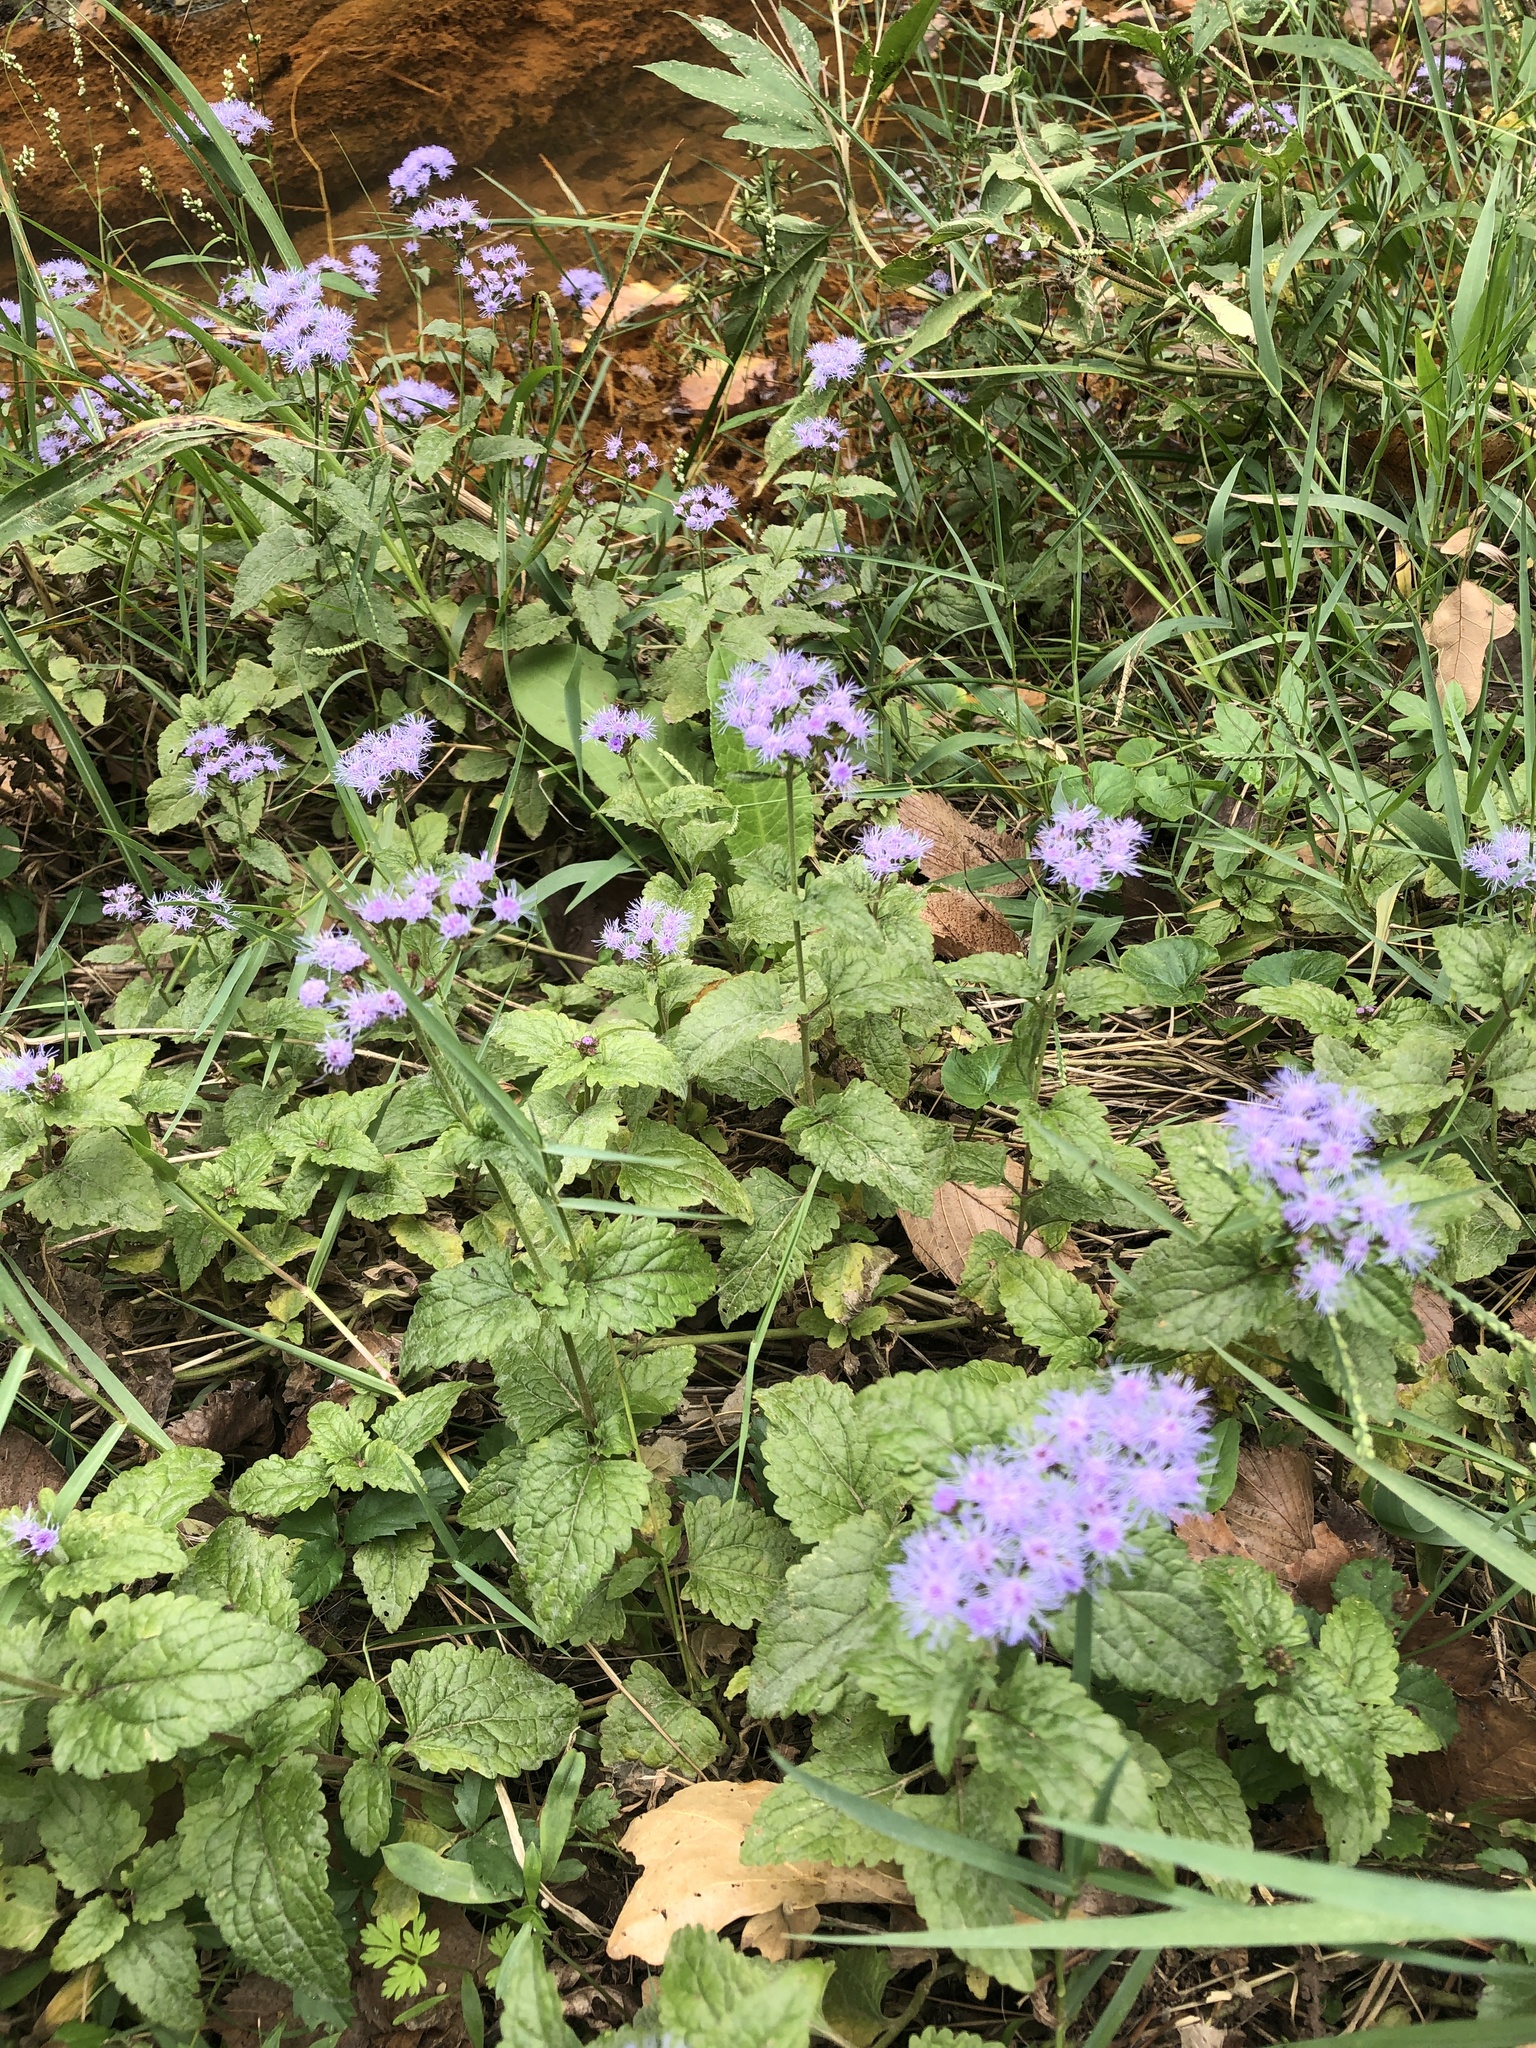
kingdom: Plantae
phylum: Tracheophyta
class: Magnoliopsida
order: Asterales
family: Asteraceae
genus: Conoclinium
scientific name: Conoclinium coelestinum
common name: Blue mistflower
